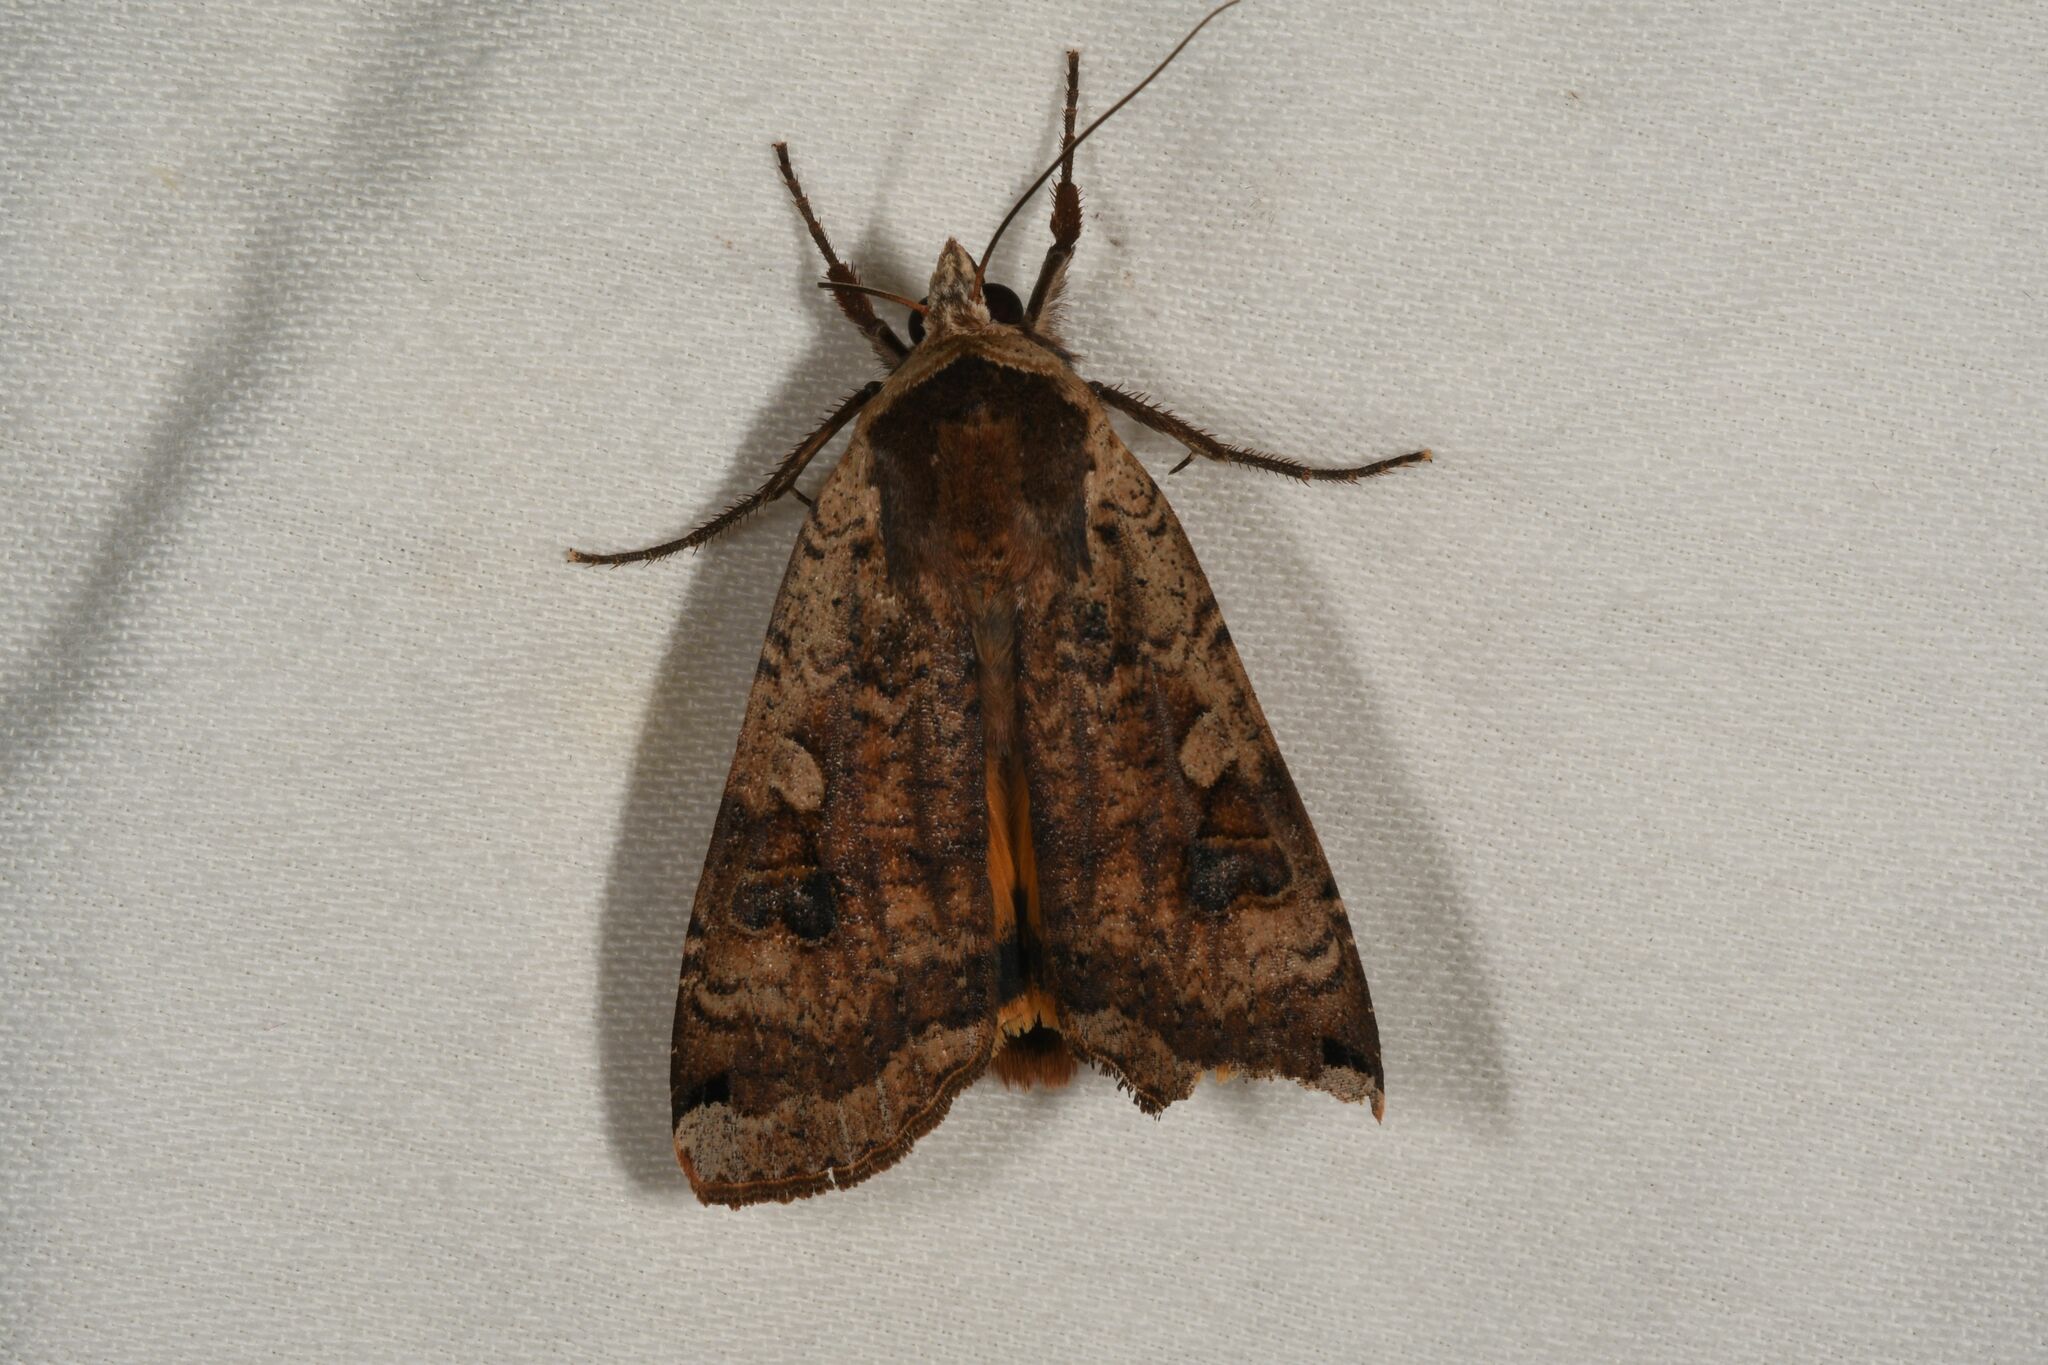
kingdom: Animalia
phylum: Arthropoda
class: Insecta
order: Lepidoptera
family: Noctuidae
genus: Noctua
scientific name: Noctua pronuba
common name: Large yellow underwing
